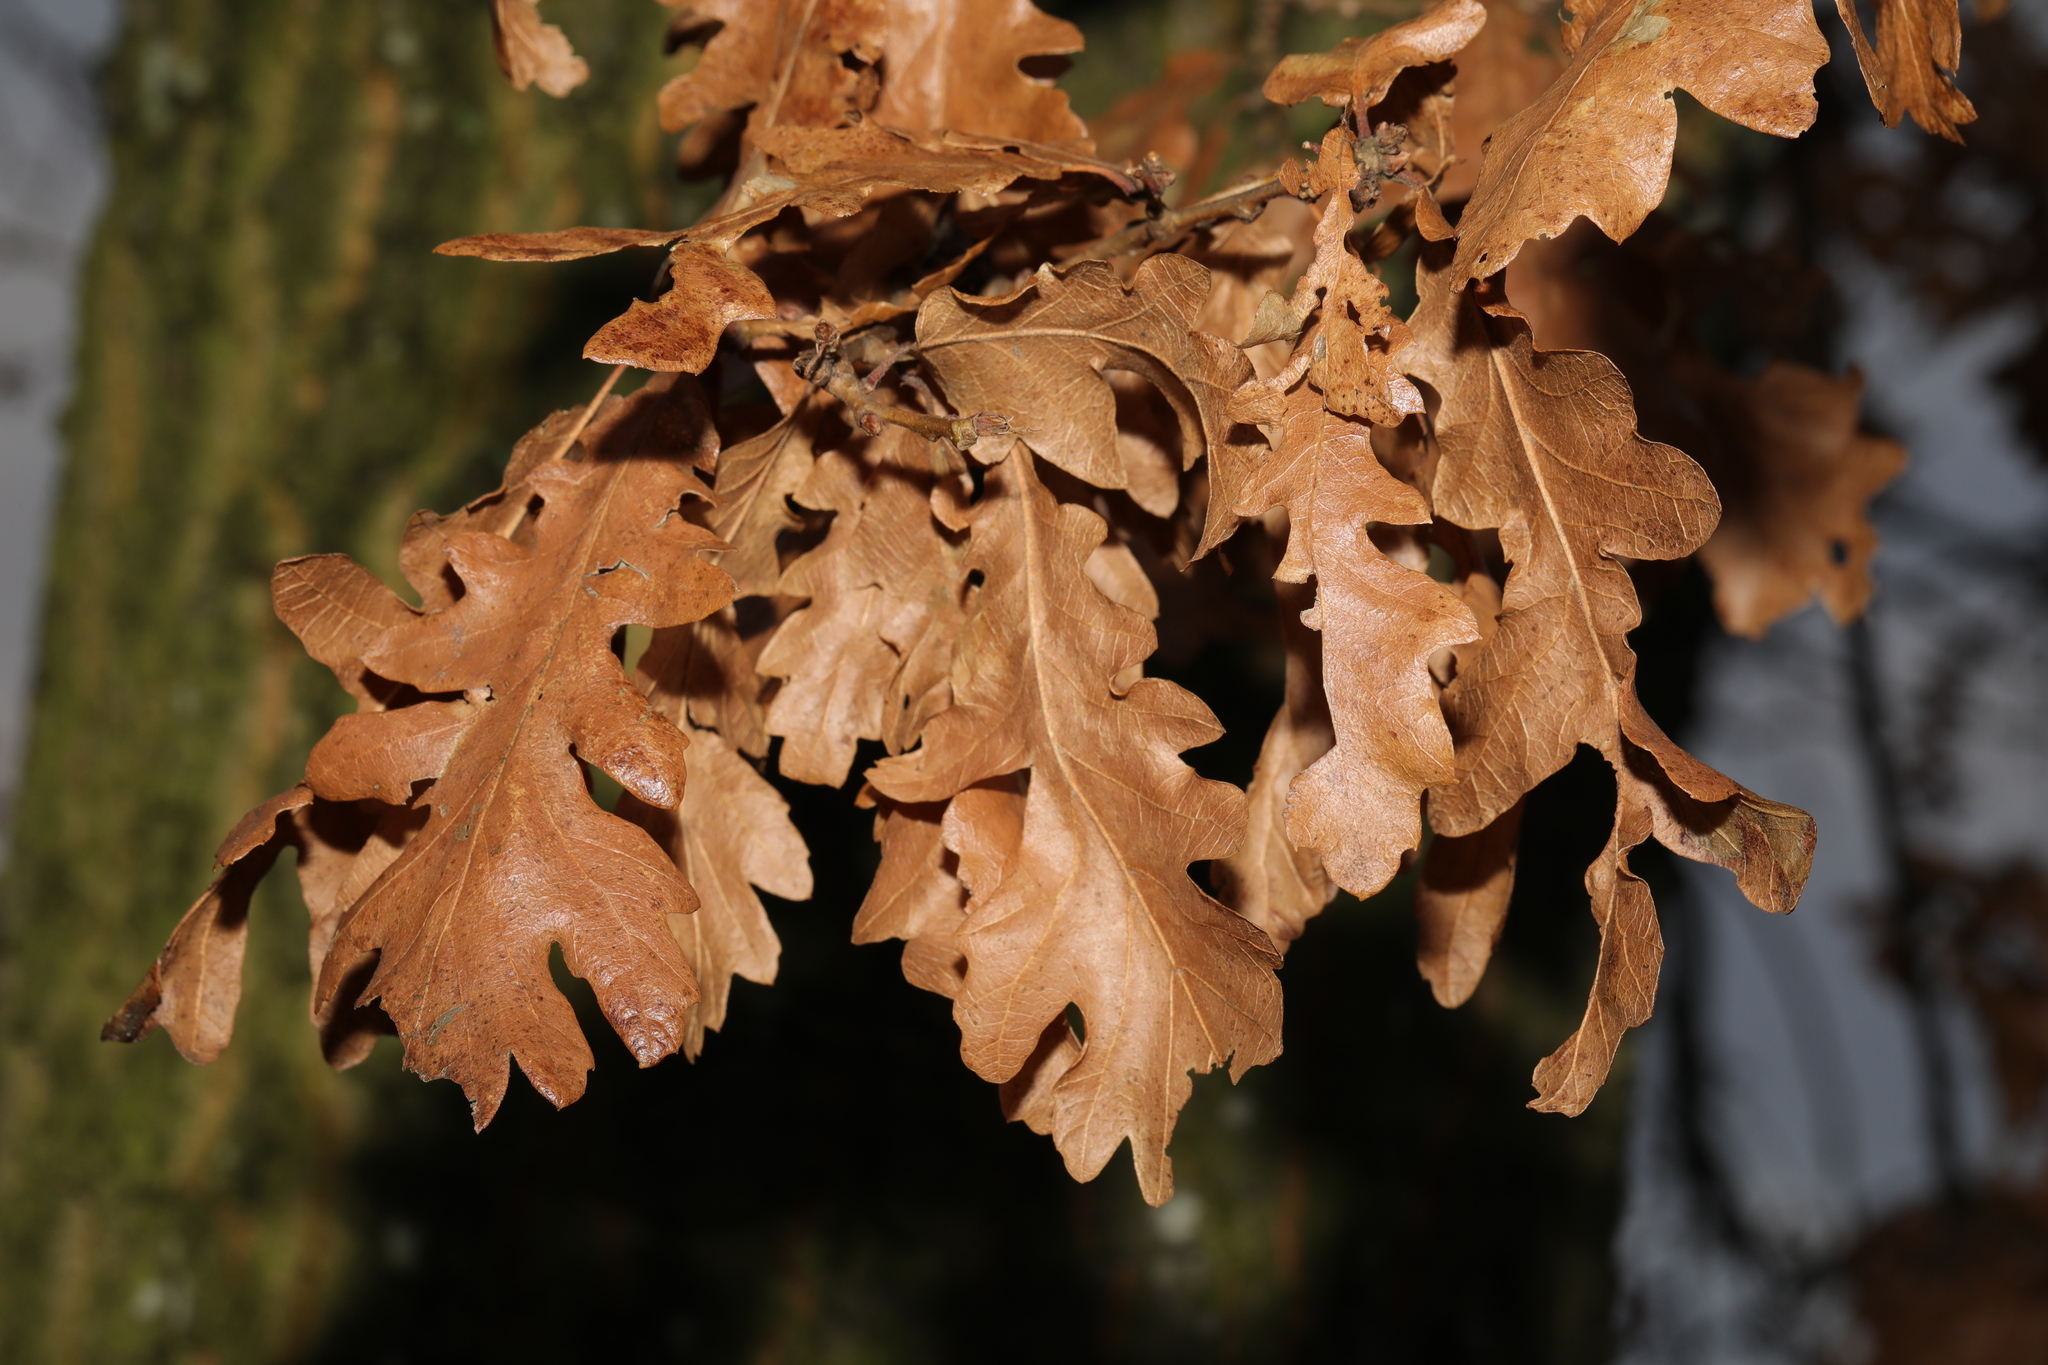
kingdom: Plantae
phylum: Tracheophyta
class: Magnoliopsida
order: Fagales
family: Fagaceae
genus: Quercus
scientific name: Quercus cerris
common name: Turkey oak
